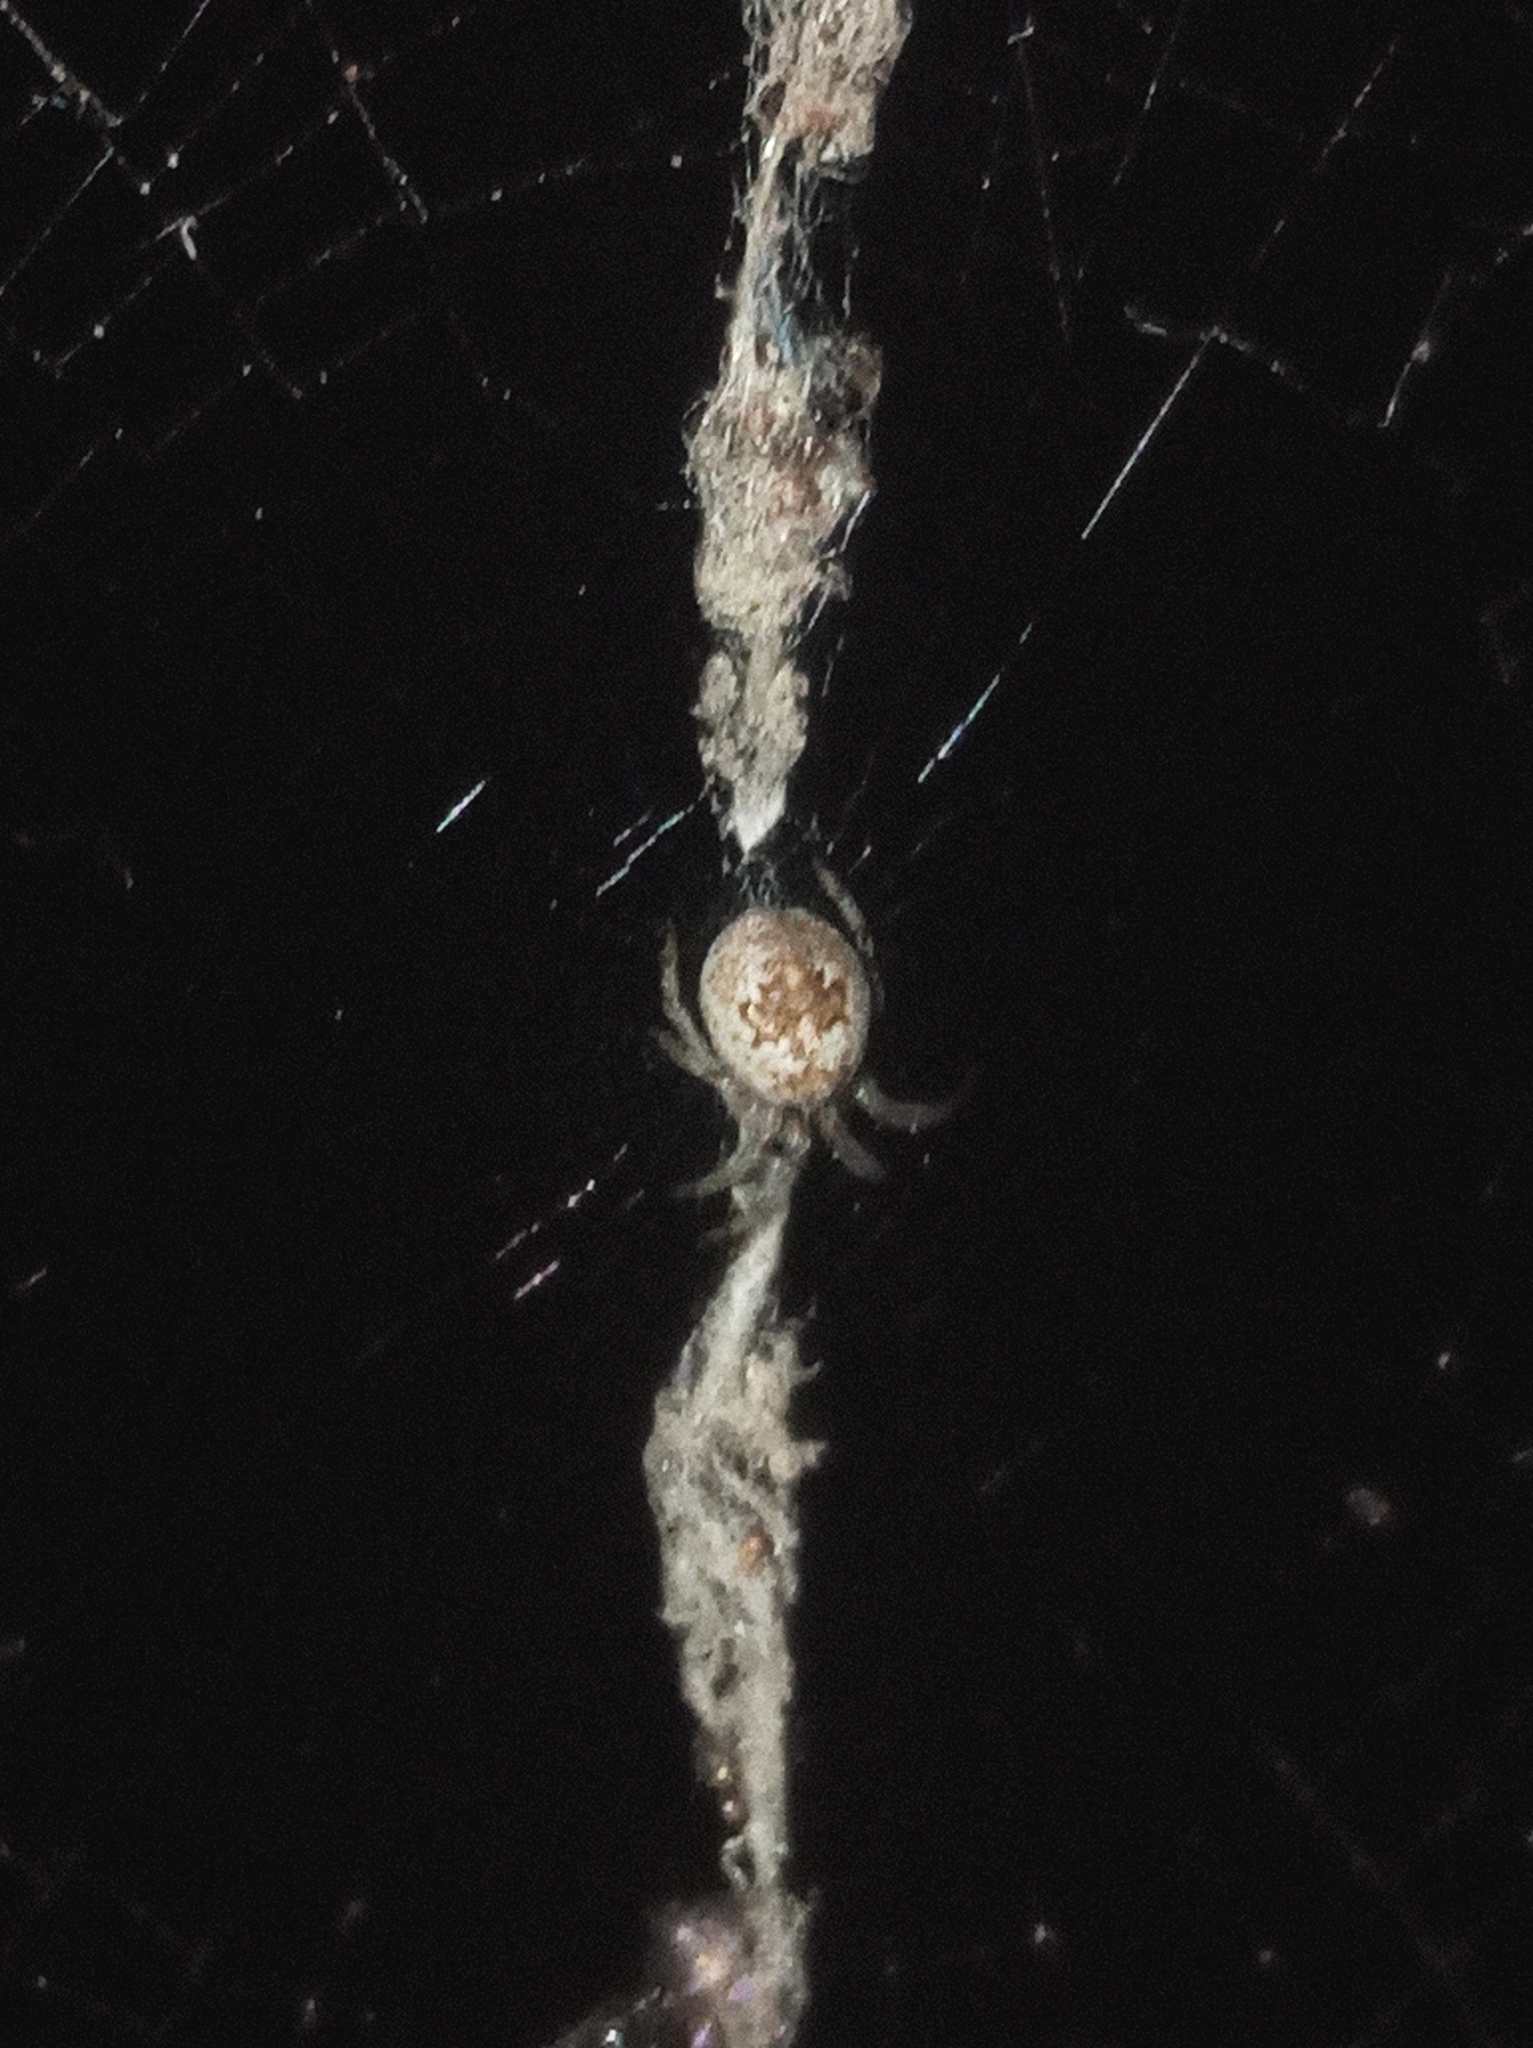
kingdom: Animalia
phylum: Arthropoda
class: Arachnida
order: Araneae
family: Araneidae
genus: Cyclosa
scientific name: Cyclosa conica
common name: Conical trashline orbweaver
